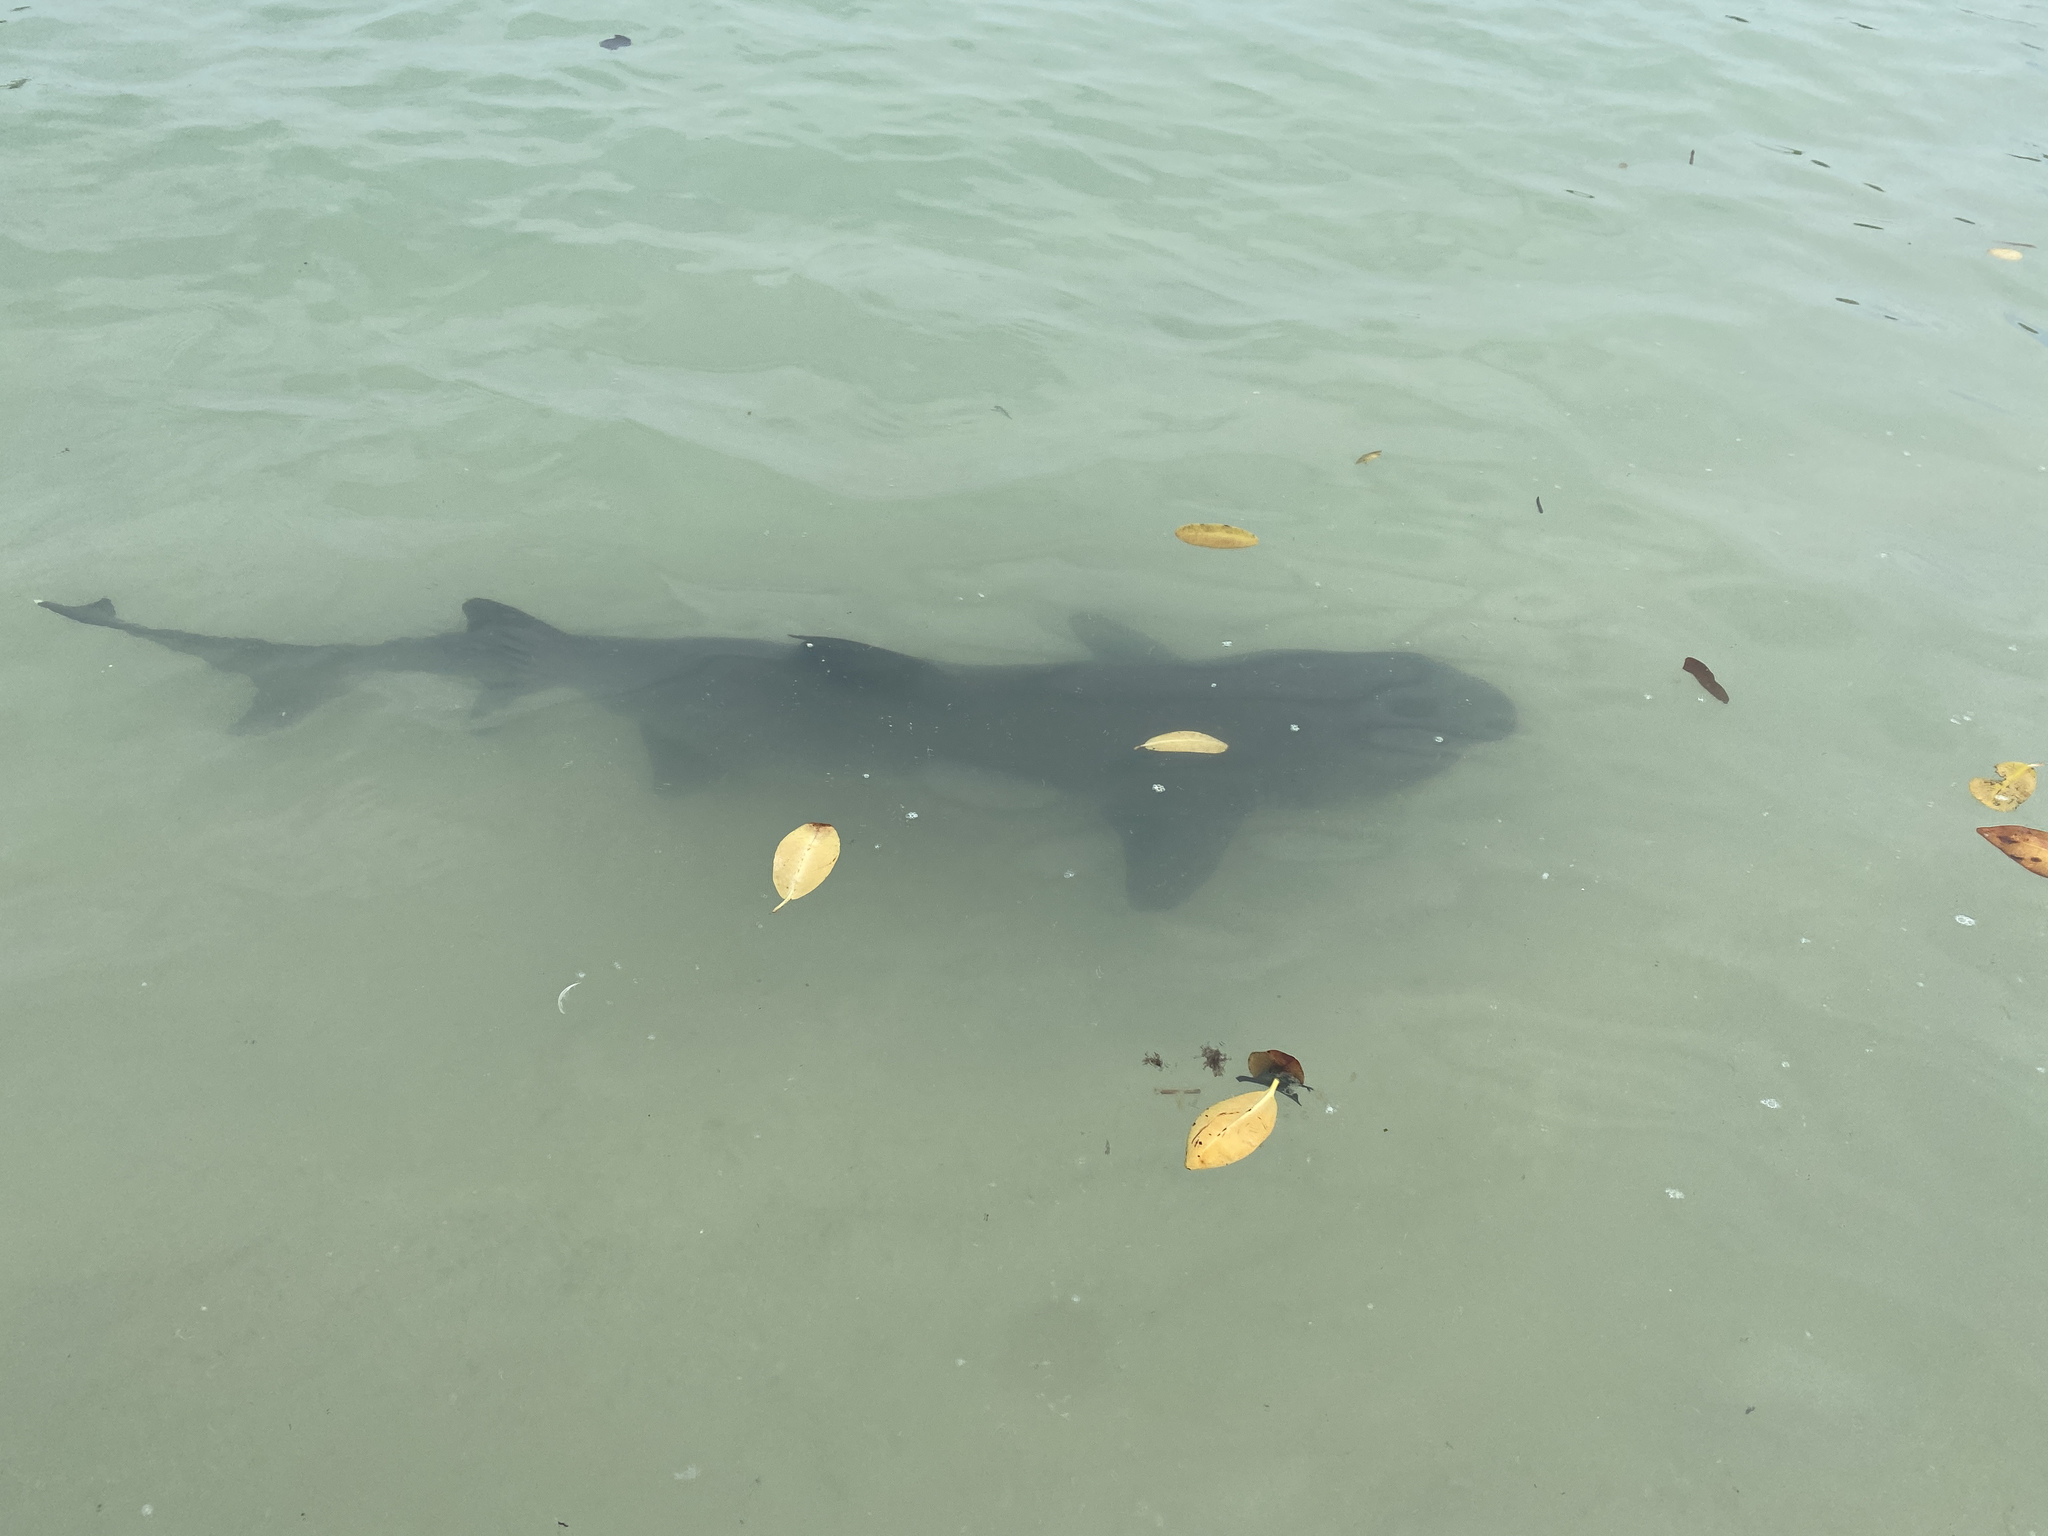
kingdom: Animalia
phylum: Chordata
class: Elasmobranchii
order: Carcharhiniformes
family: Carcharhinidae
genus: Triaenodon
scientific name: Triaenodon obesus
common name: Whitetip reef shark
